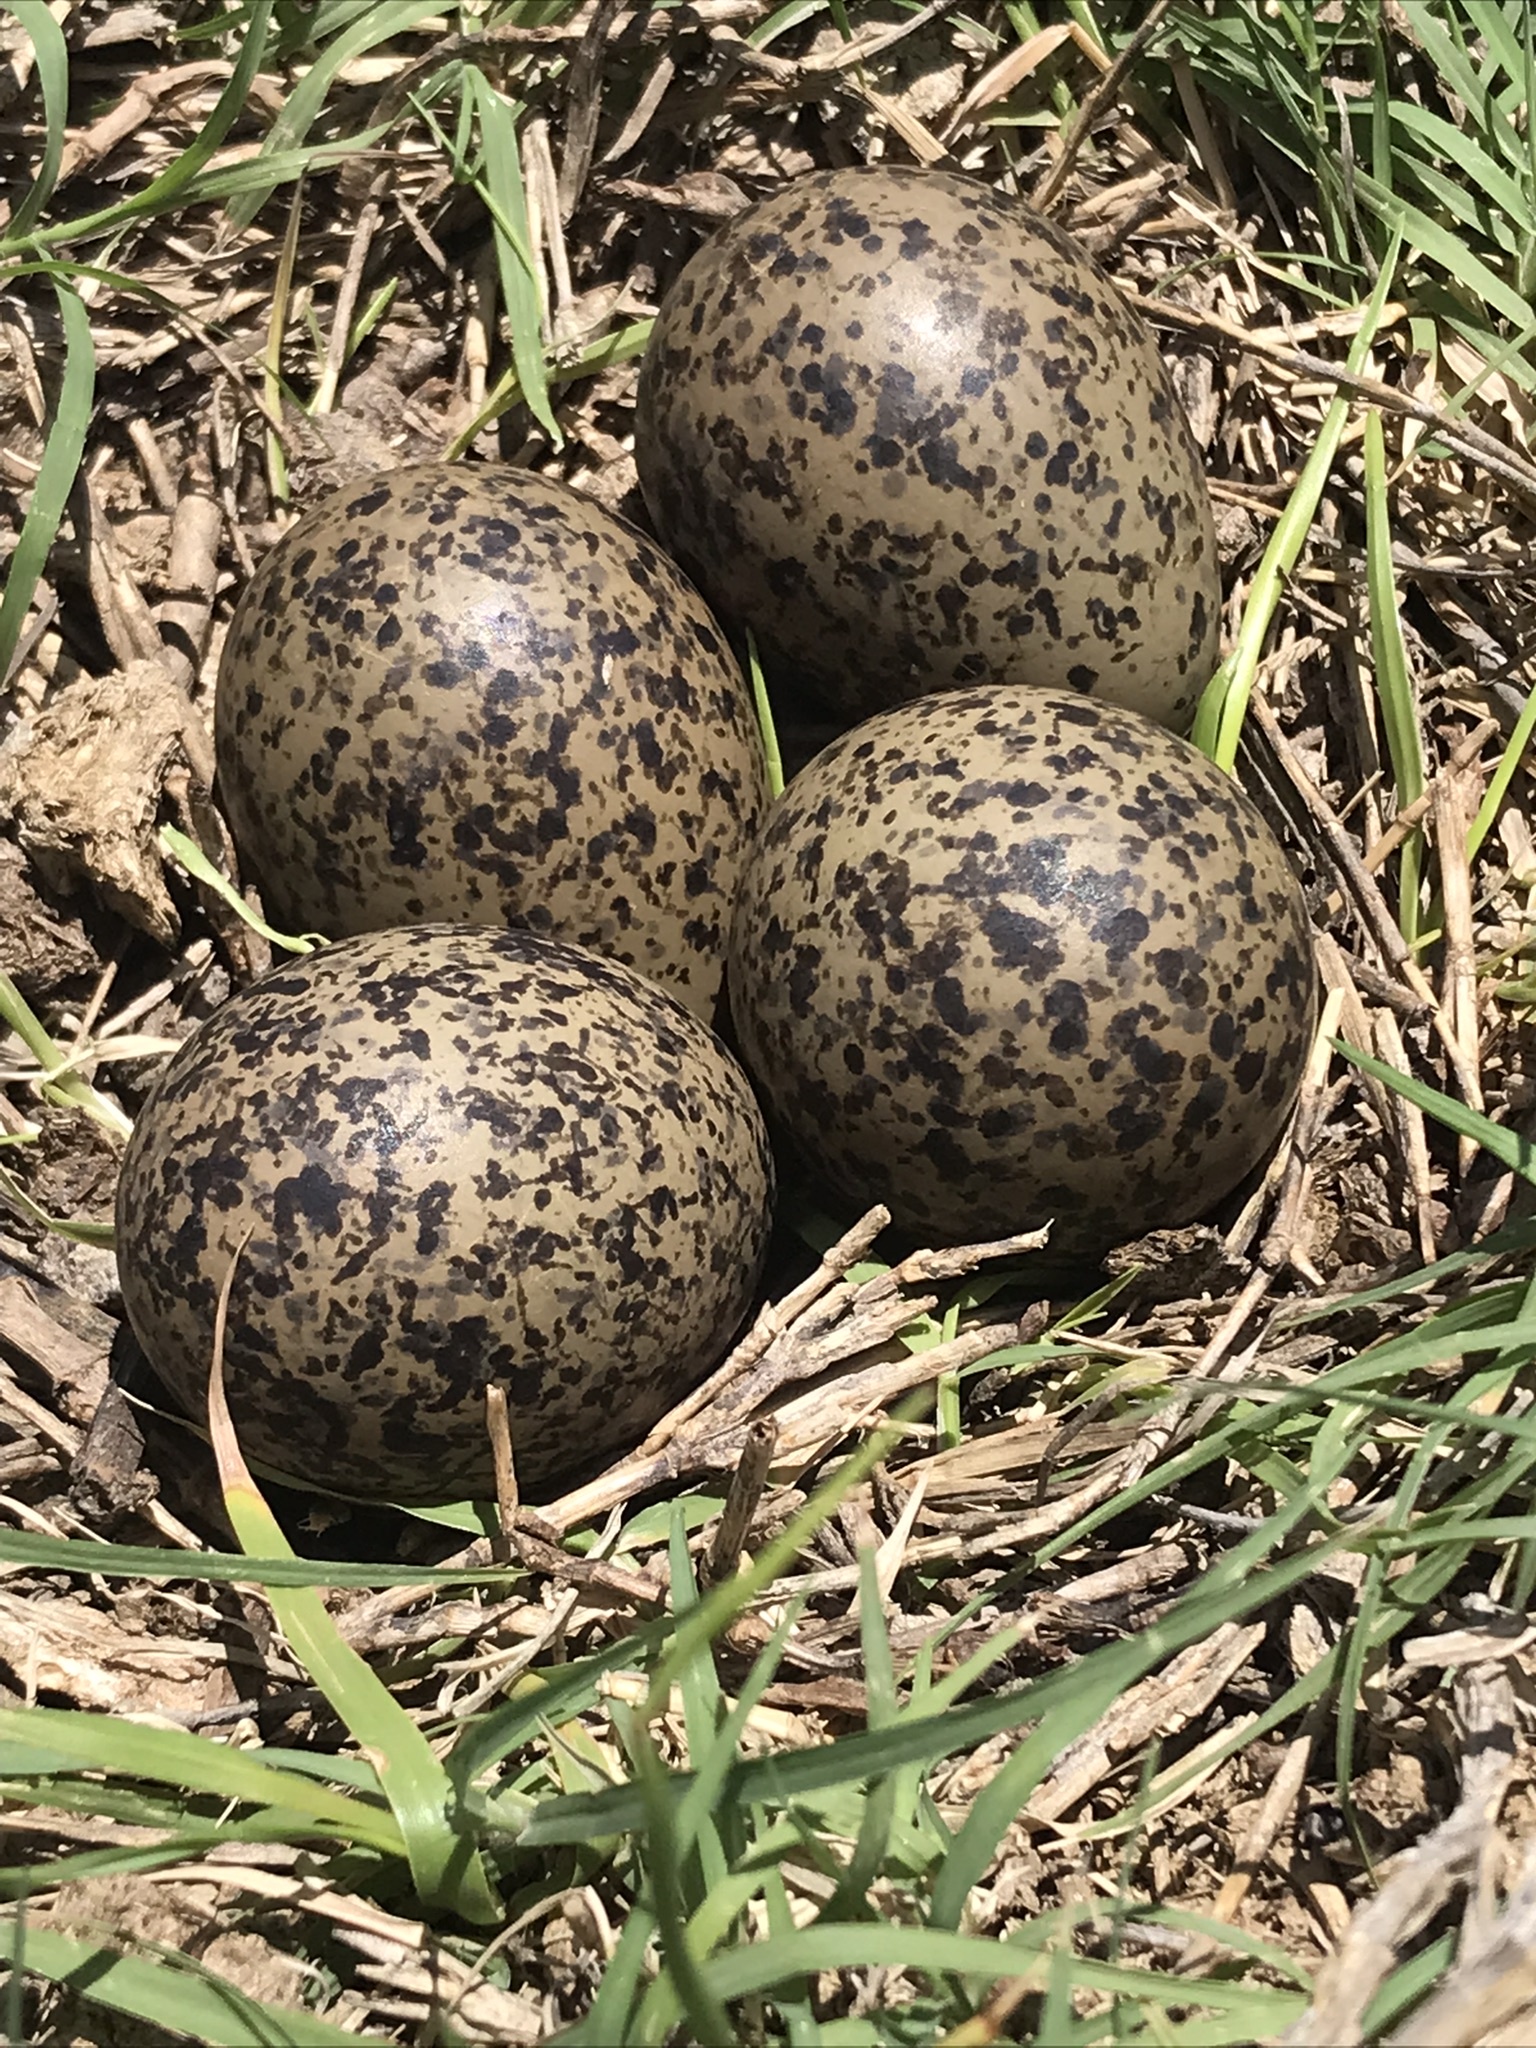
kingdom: Animalia
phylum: Chordata
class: Aves
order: Charadriiformes
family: Charadriidae
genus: Vanellus
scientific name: Vanellus chilensis
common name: Southern lapwing
